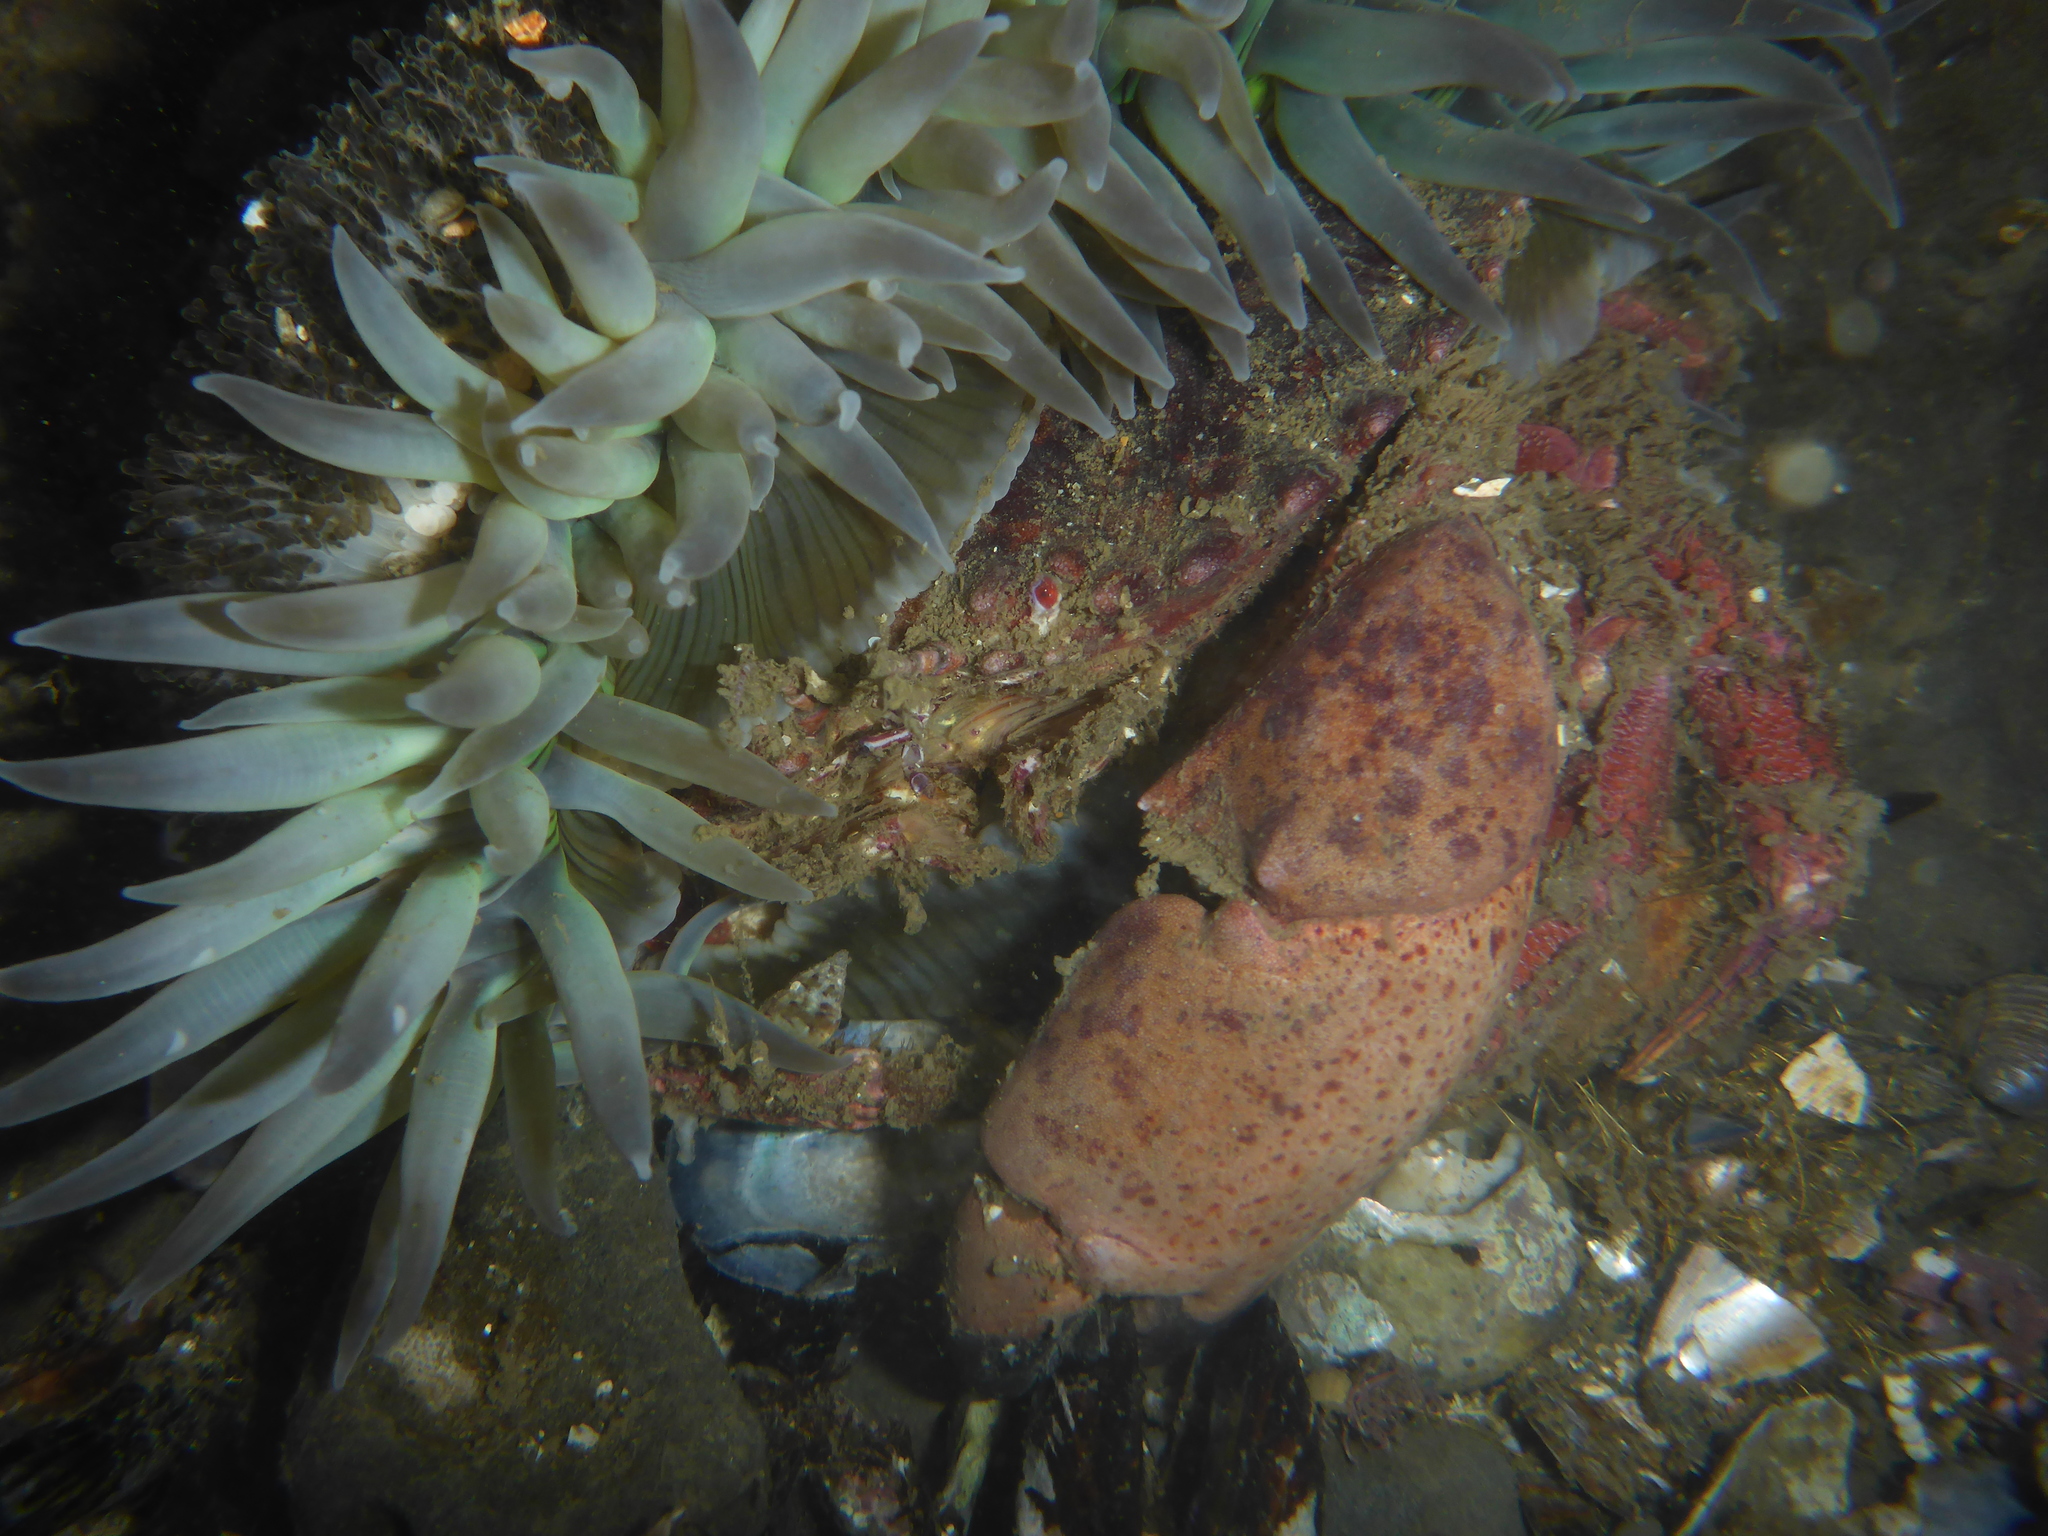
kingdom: Animalia
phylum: Arthropoda
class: Malacostraca
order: Decapoda
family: Cancridae
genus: Romaleon
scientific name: Romaleon antennarium
